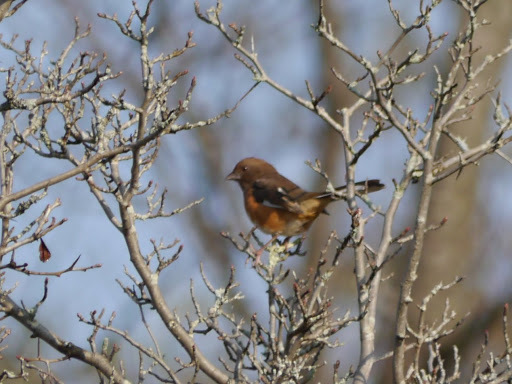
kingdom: Animalia
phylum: Chordata
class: Aves
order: Passeriformes
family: Passerellidae
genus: Pipilo
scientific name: Pipilo erythrophthalmus
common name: Eastern towhee
